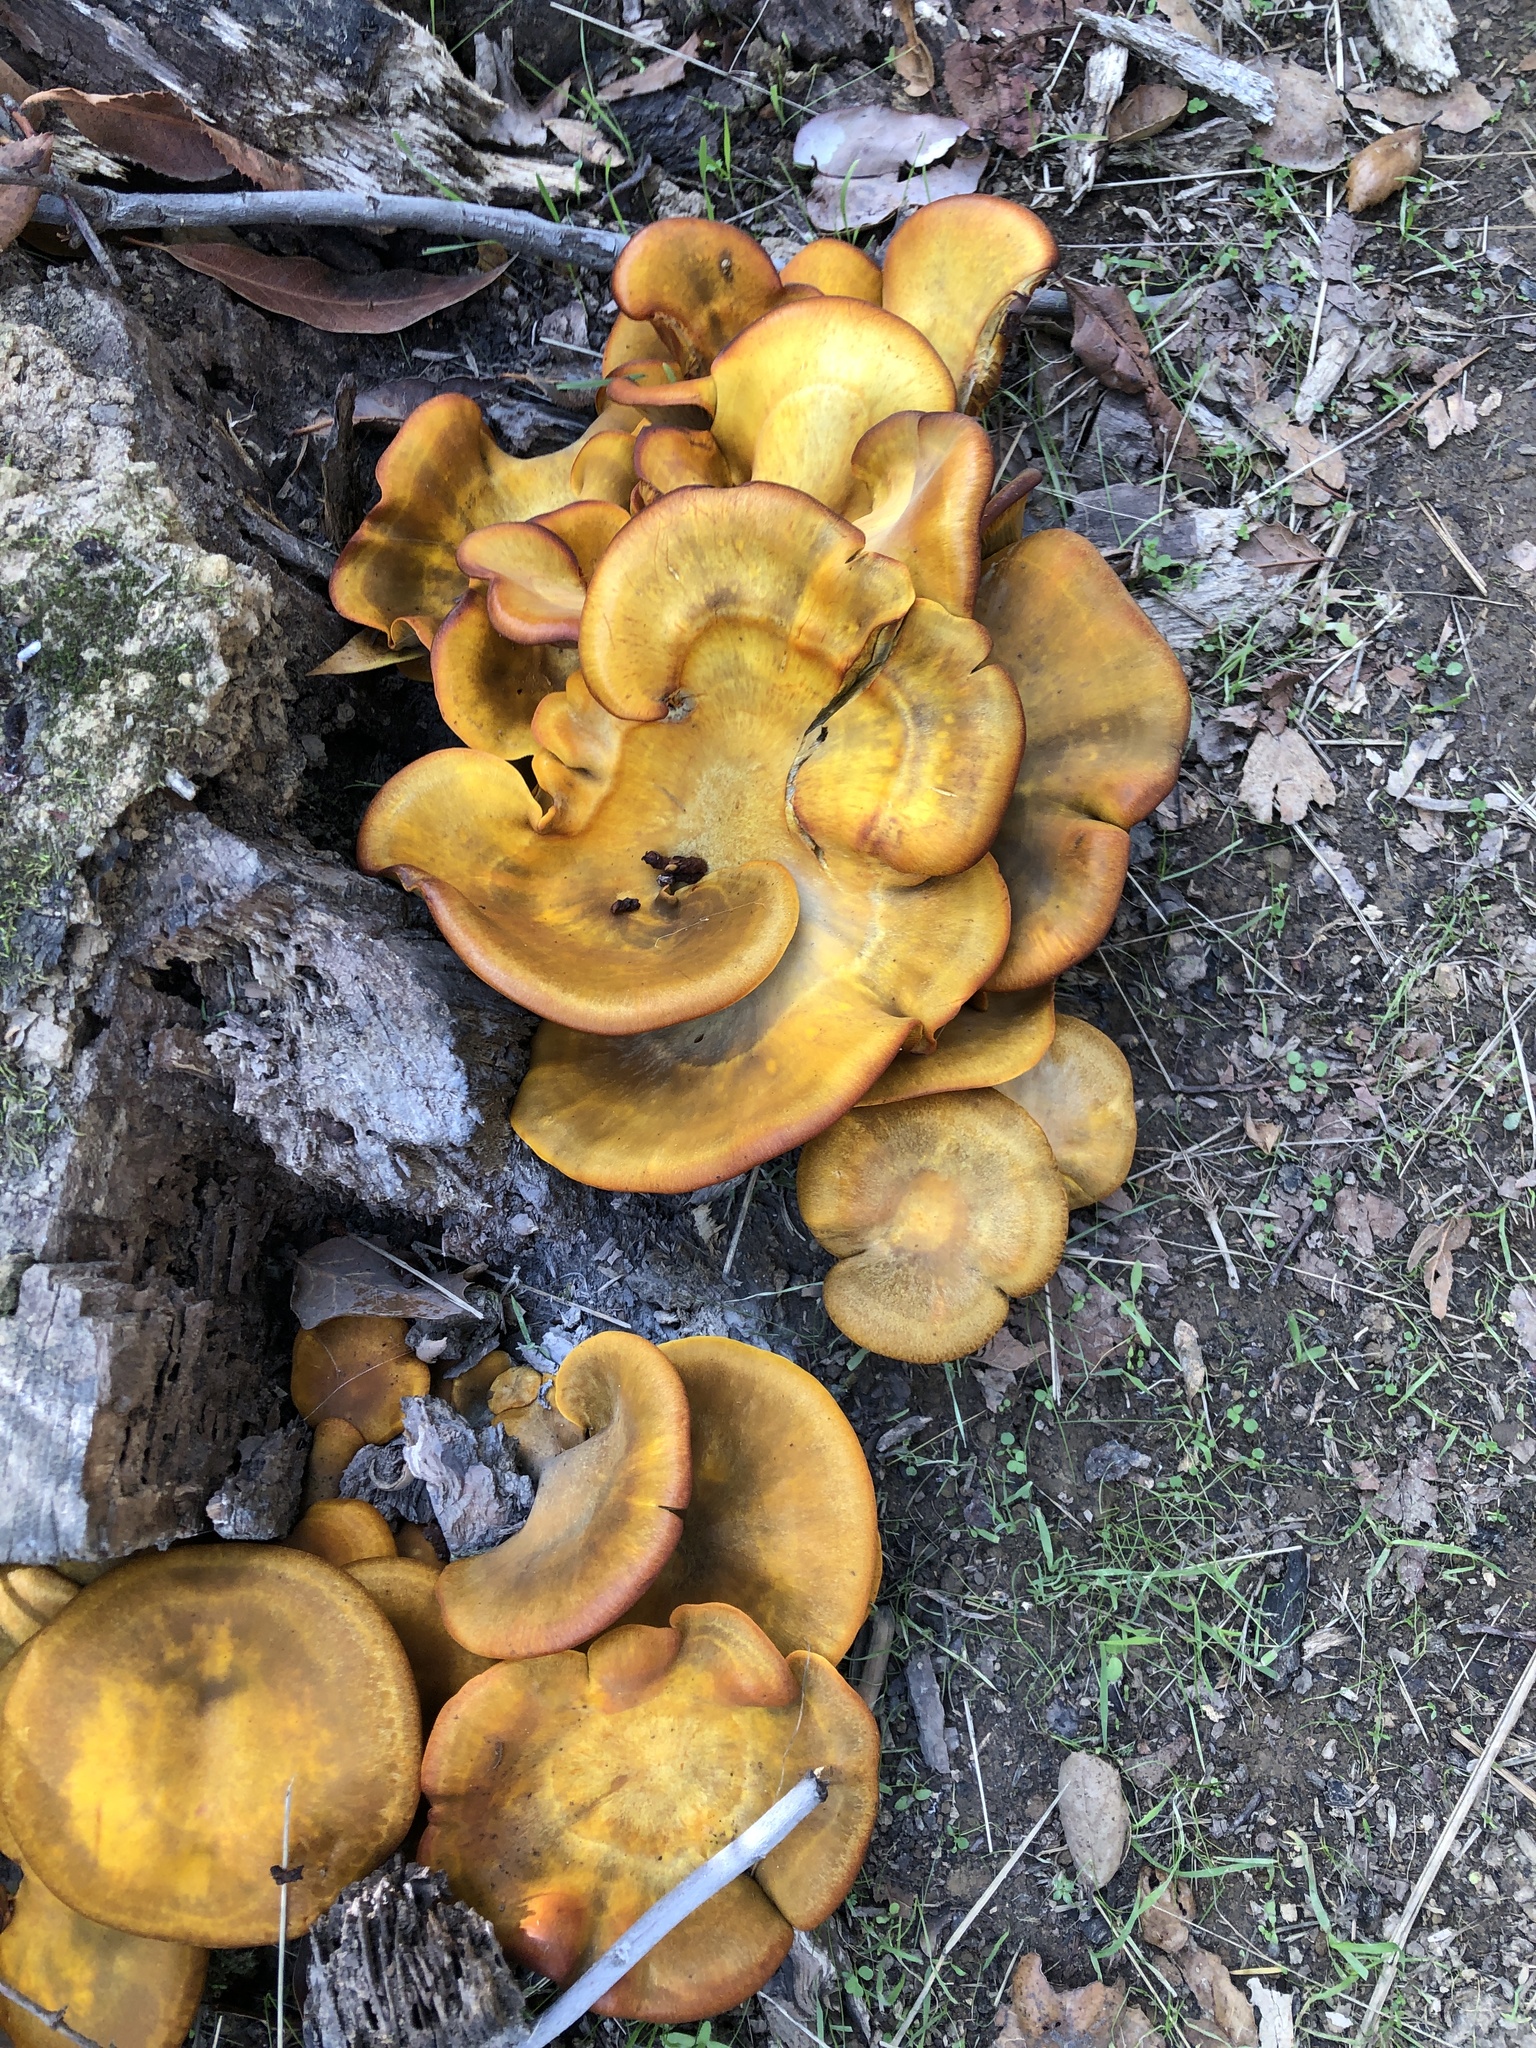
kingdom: Fungi
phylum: Basidiomycota
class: Agaricomycetes
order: Agaricales
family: Omphalotaceae
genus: Omphalotus
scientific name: Omphalotus olivascens
